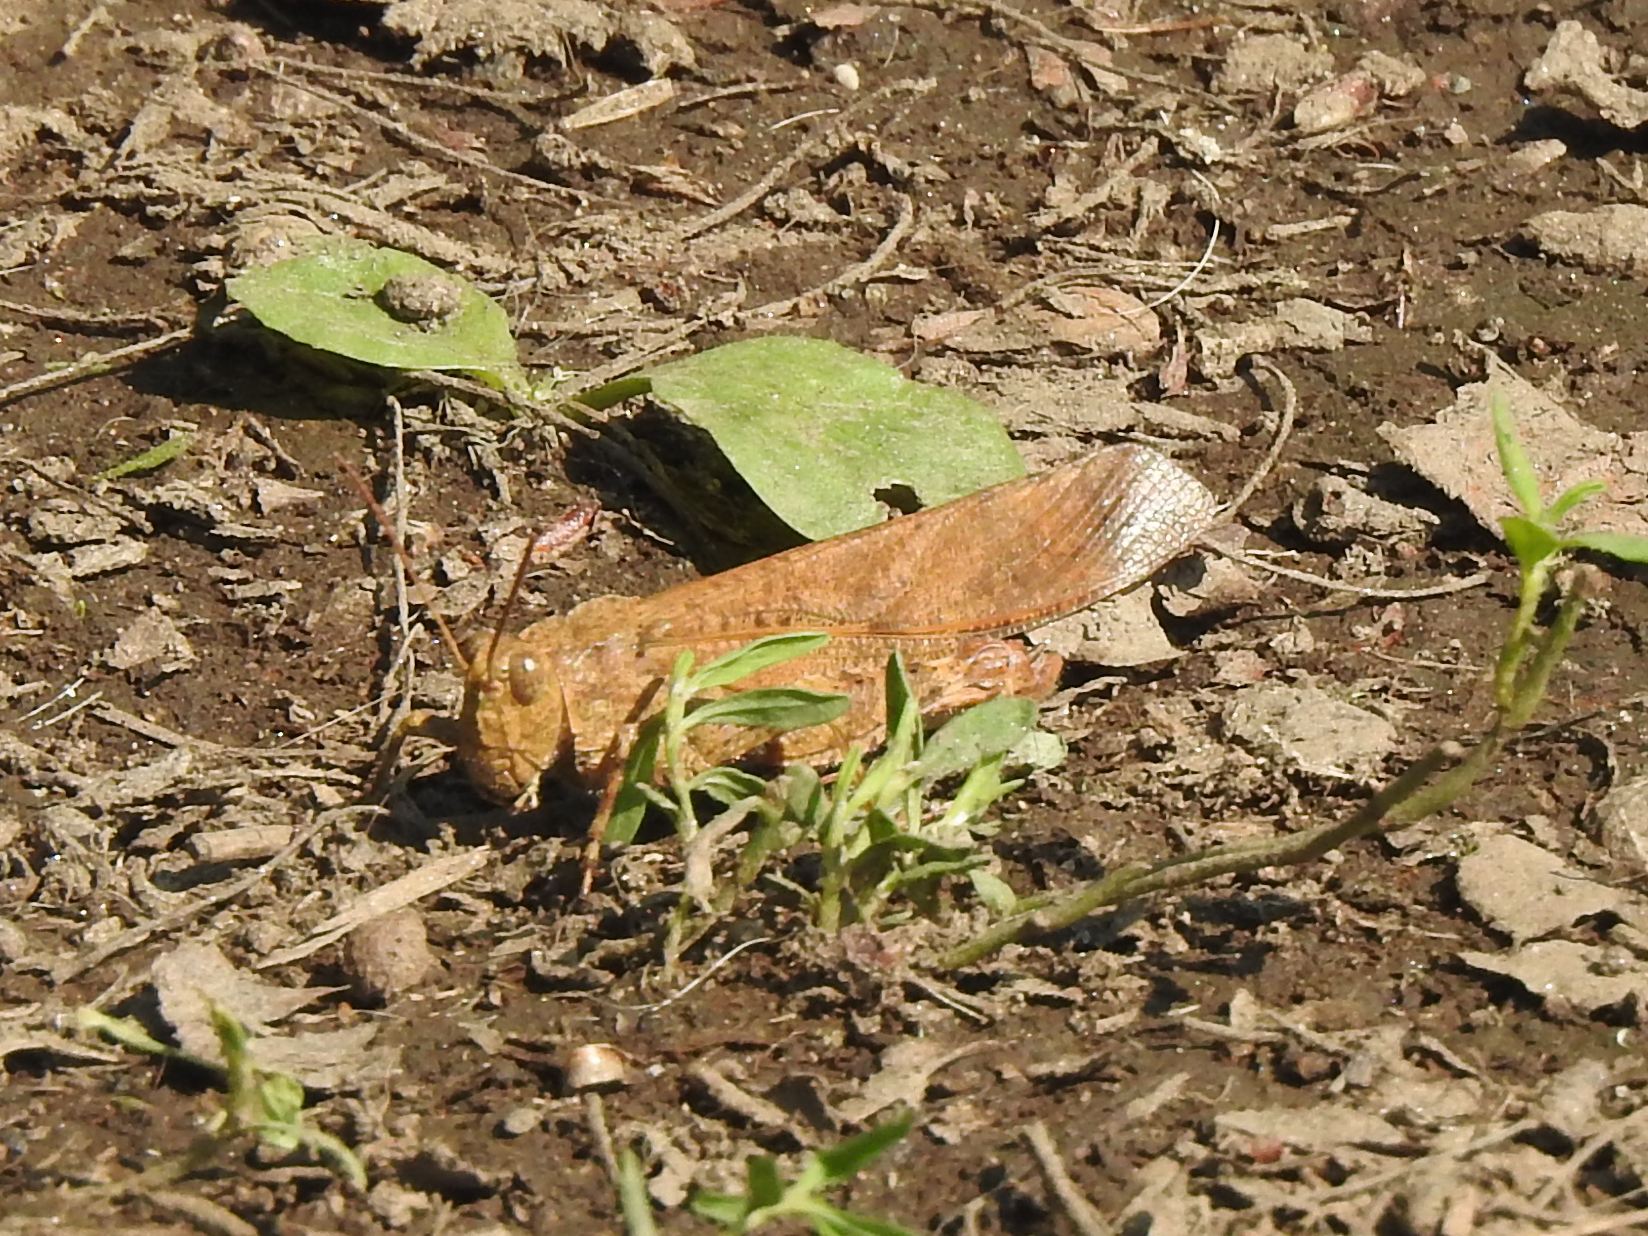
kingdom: Animalia
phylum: Arthropoda
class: Insecta
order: Orthoptera
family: Acrididae
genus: Dissosteira
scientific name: Dissosteira carolina
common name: Carolina grasshopper
